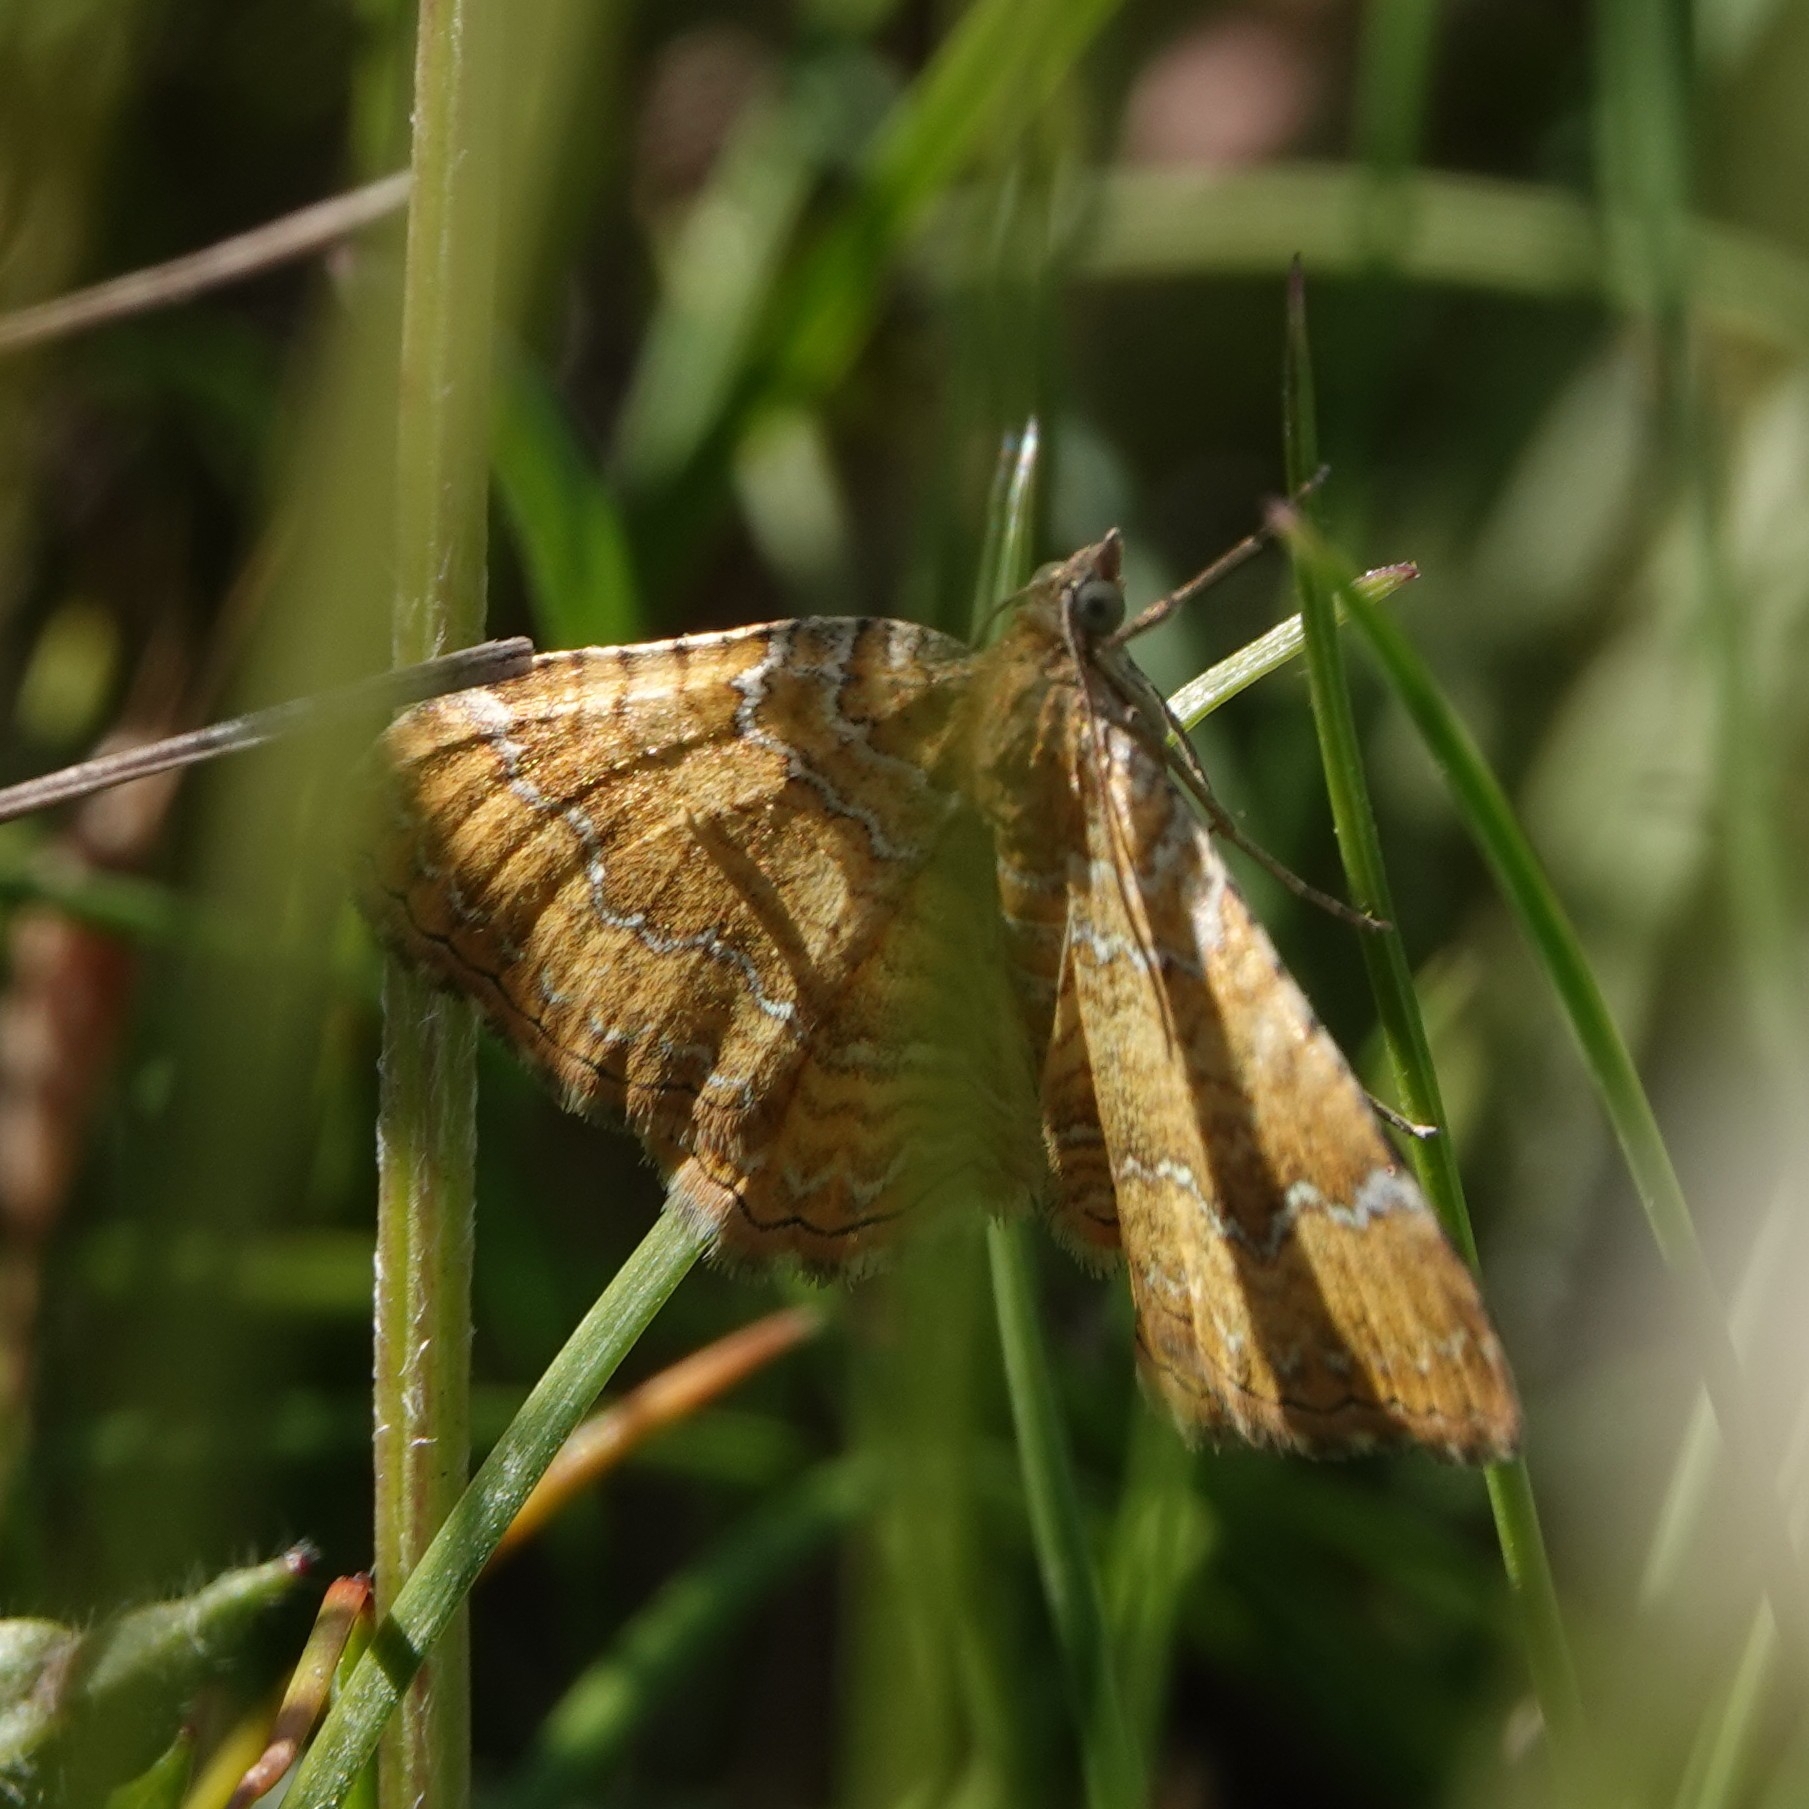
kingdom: Animalia
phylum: Arthropoda
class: Insecta
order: Lepidoptera
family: Geometridae
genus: Camptogramma
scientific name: Camptogramma bilineata
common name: Yellow shell
